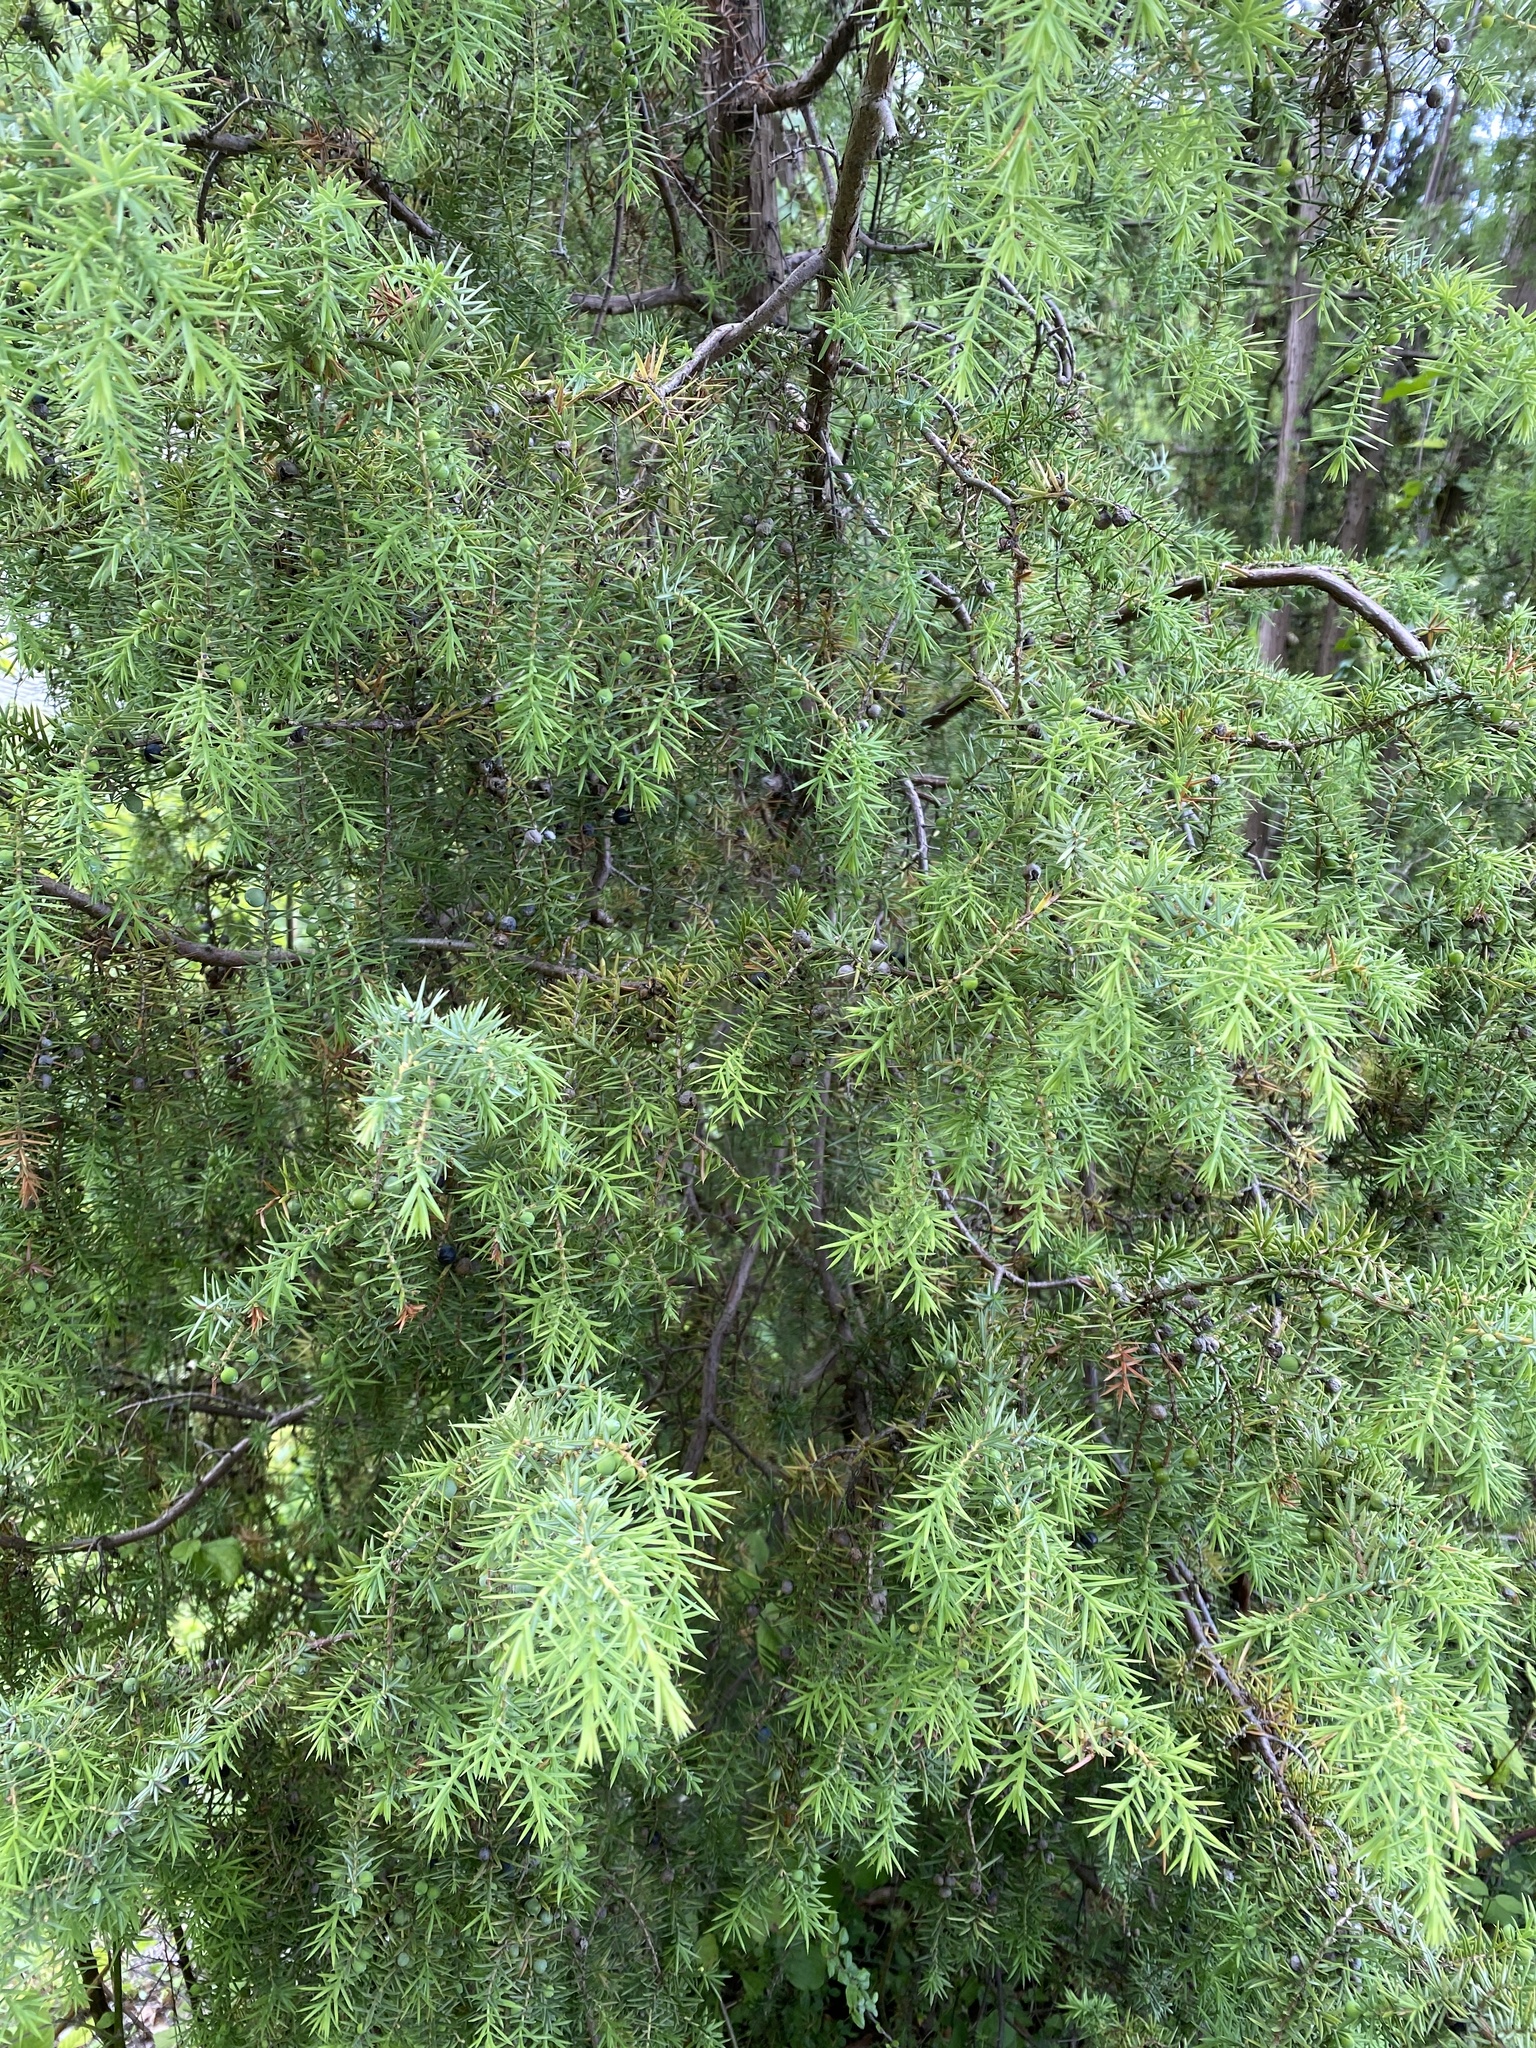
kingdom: Plantae
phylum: Tracheophyta
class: Pinopsida
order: Pinales
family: Cupressaceae
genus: Juniperus
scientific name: Juniperus communis
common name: Common juniper
